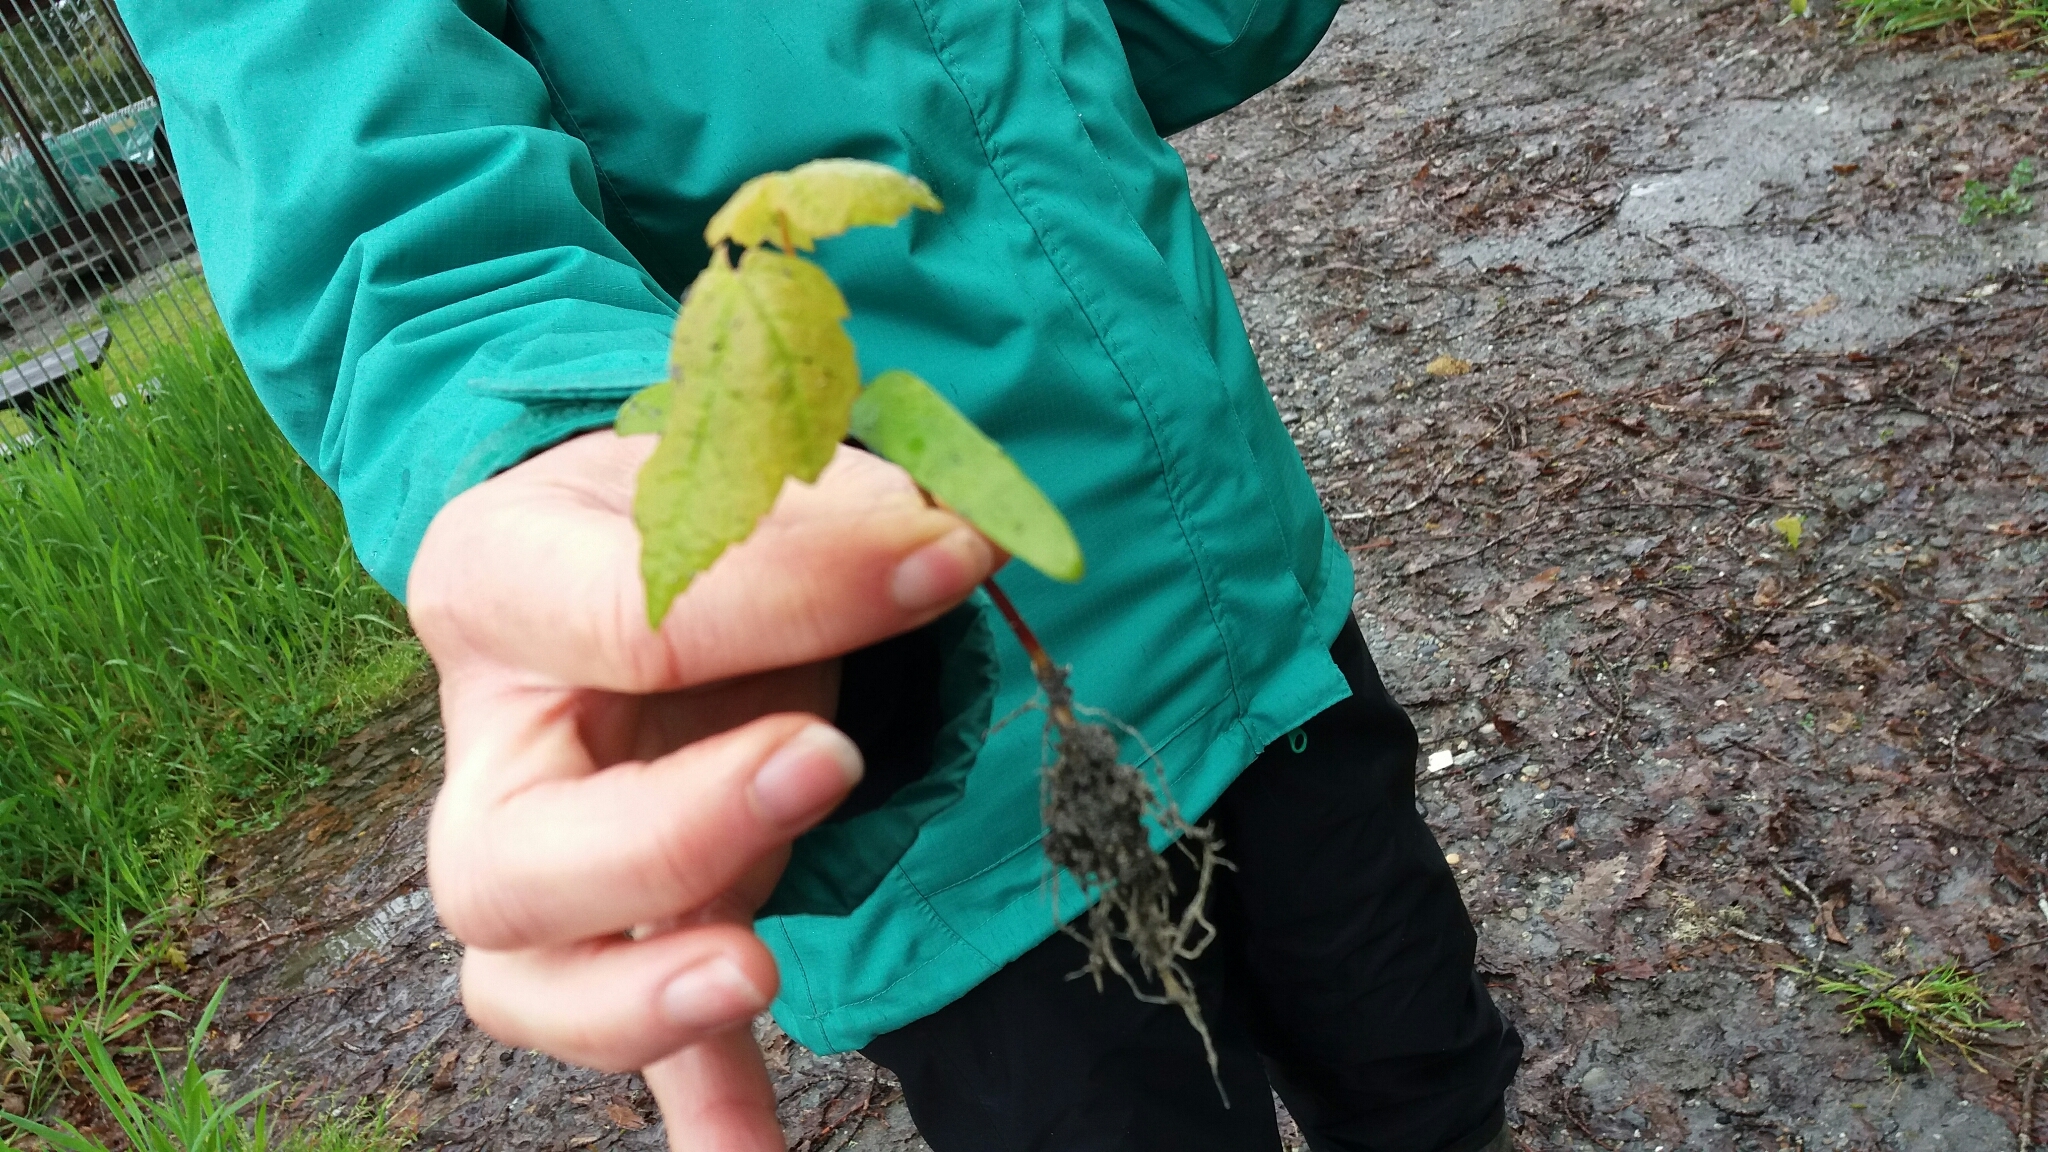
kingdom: Plantae
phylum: Tracheophyta
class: Magnoliopsida
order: Sapindales
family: Sapindaceae
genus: Acer
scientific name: Acer pseudoplatanus
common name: Sycamore
